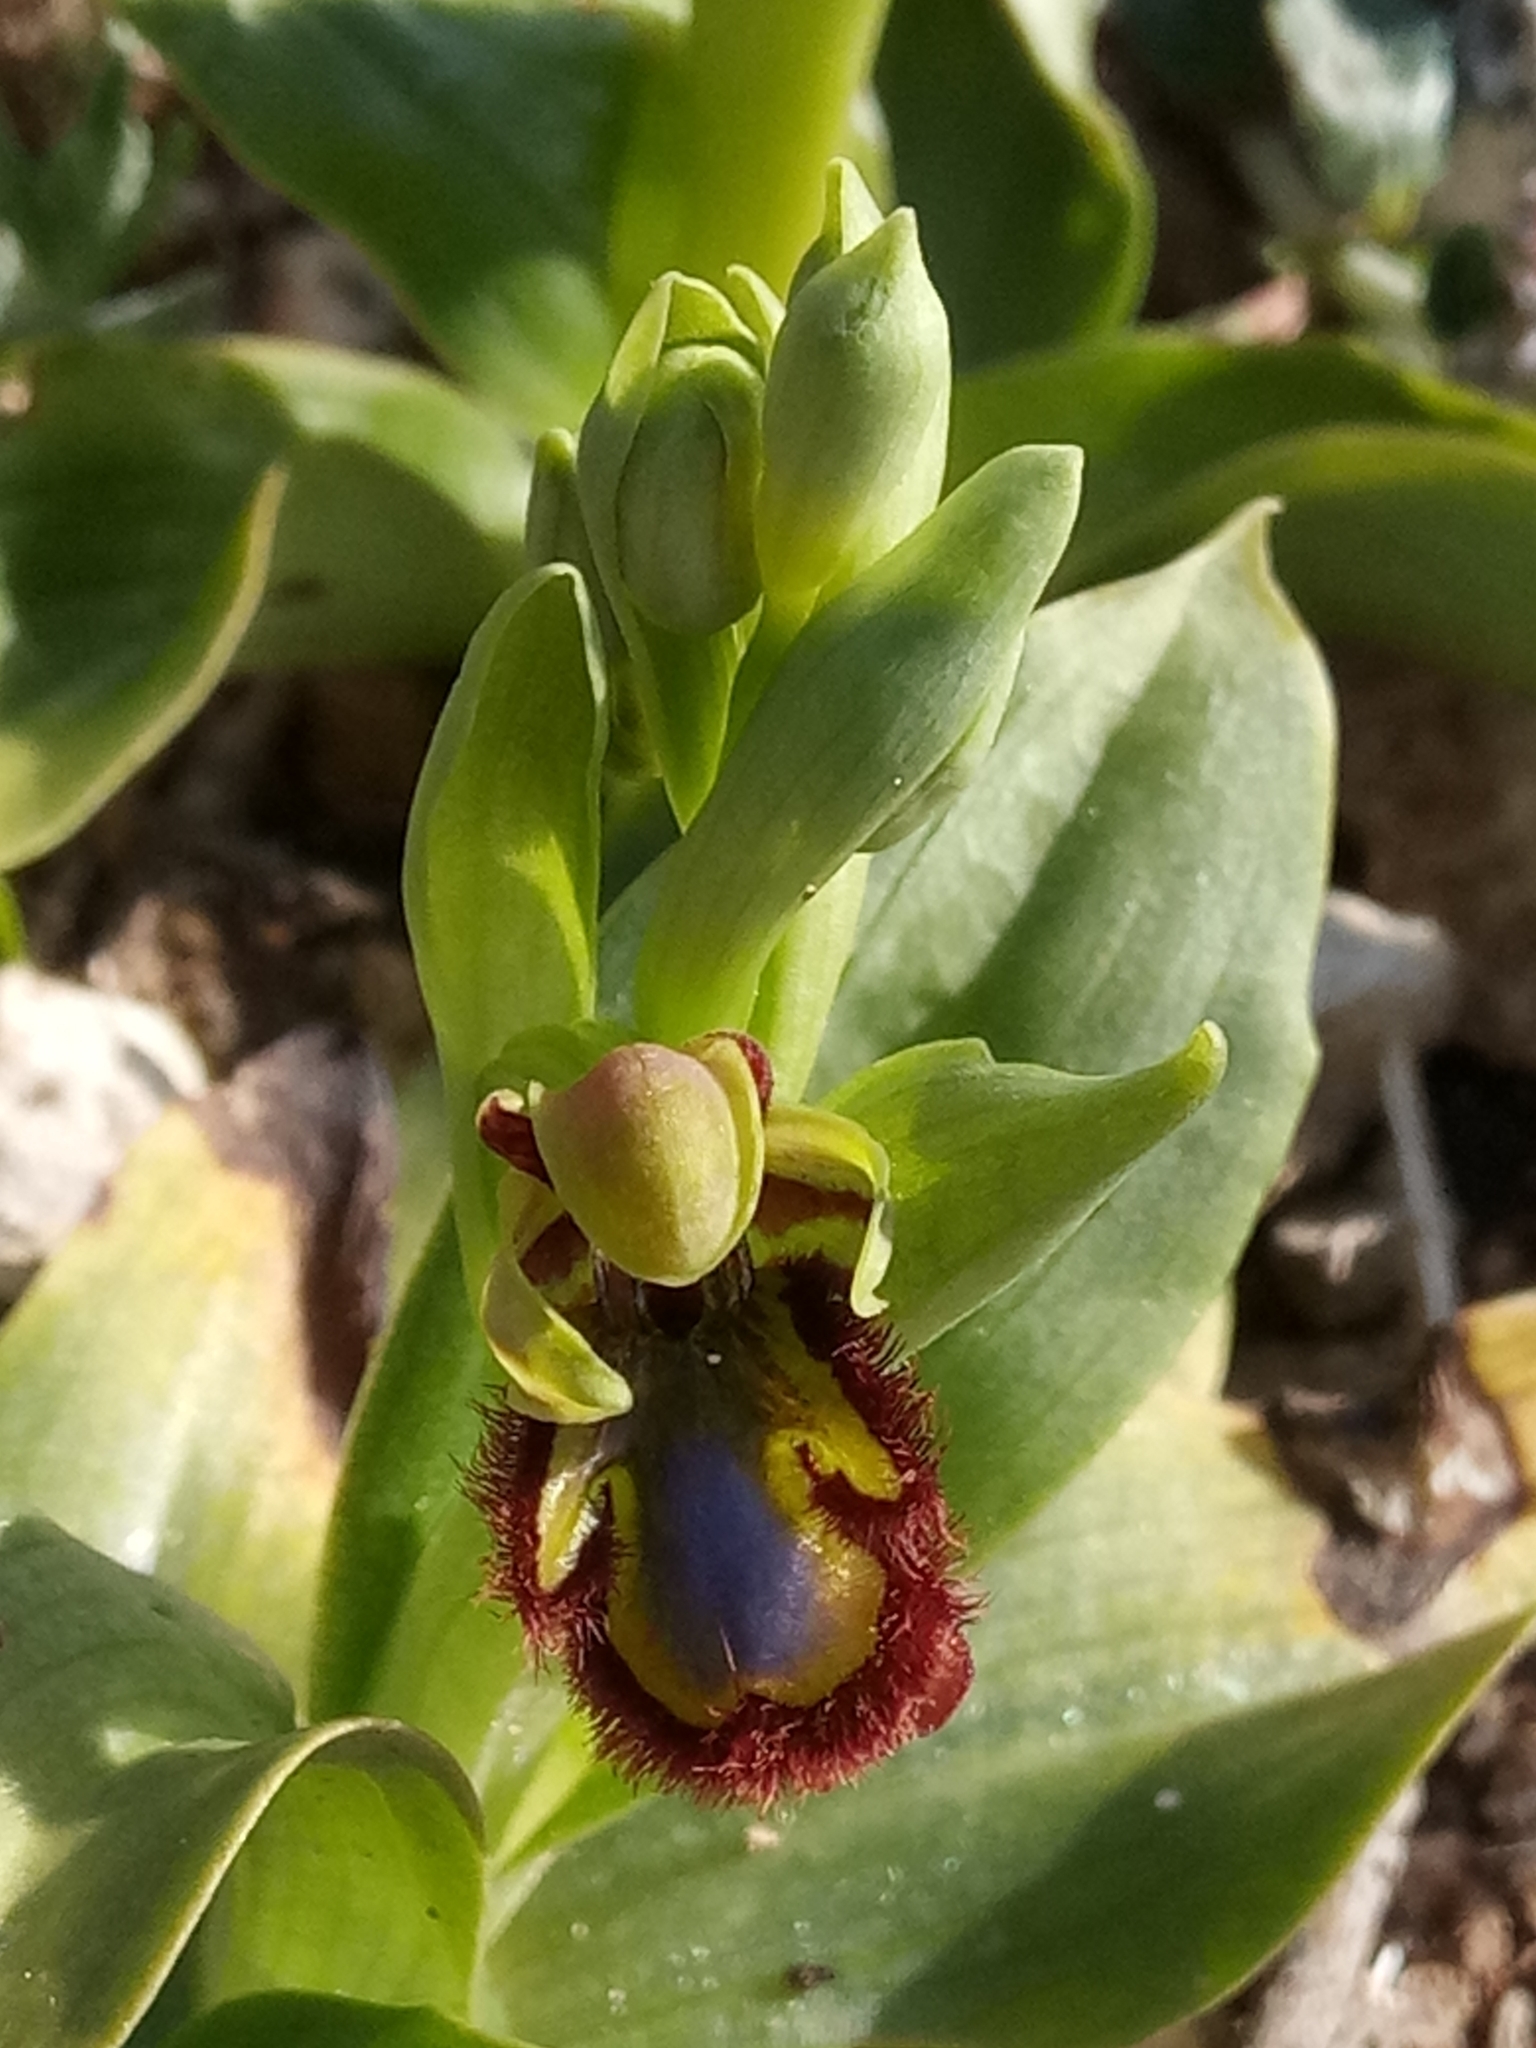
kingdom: Plantae
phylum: Tracheophyta
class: Liliopsida
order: Asparagales
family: Orchidaceae
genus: Ophrys
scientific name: Ophrys speculum
